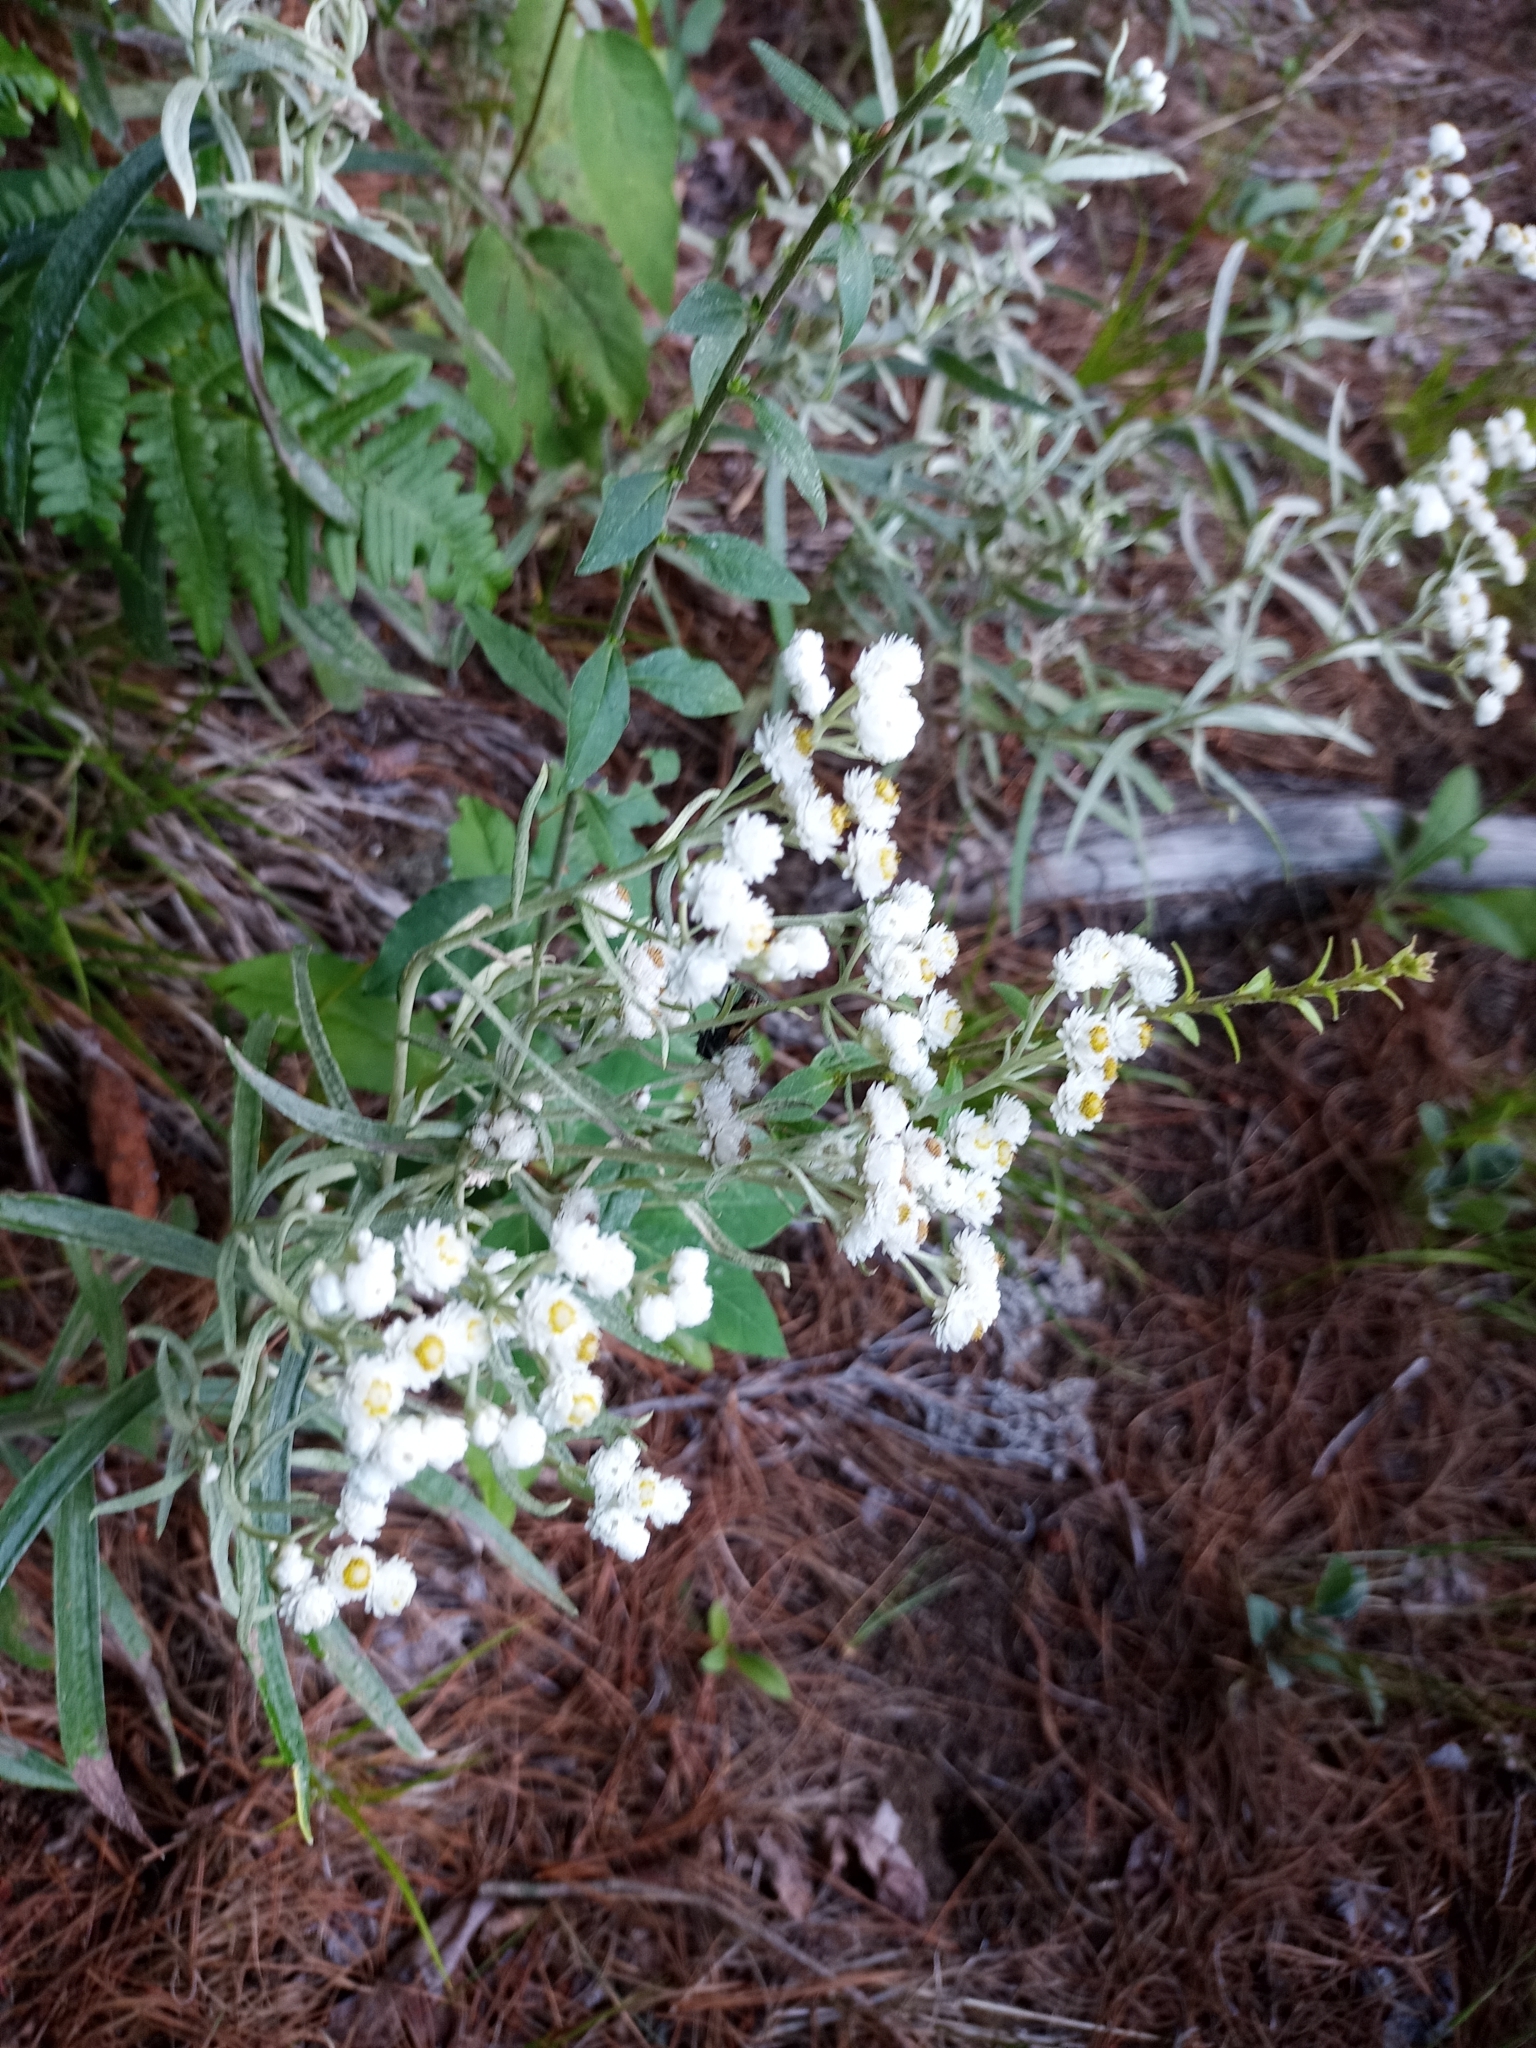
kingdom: Plantae
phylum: Tracheophyta
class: Magnoliopsida
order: Asterales
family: Asteraceae
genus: Anaphalis
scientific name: Anaphalis margaritacea
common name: Pearly everlasting
